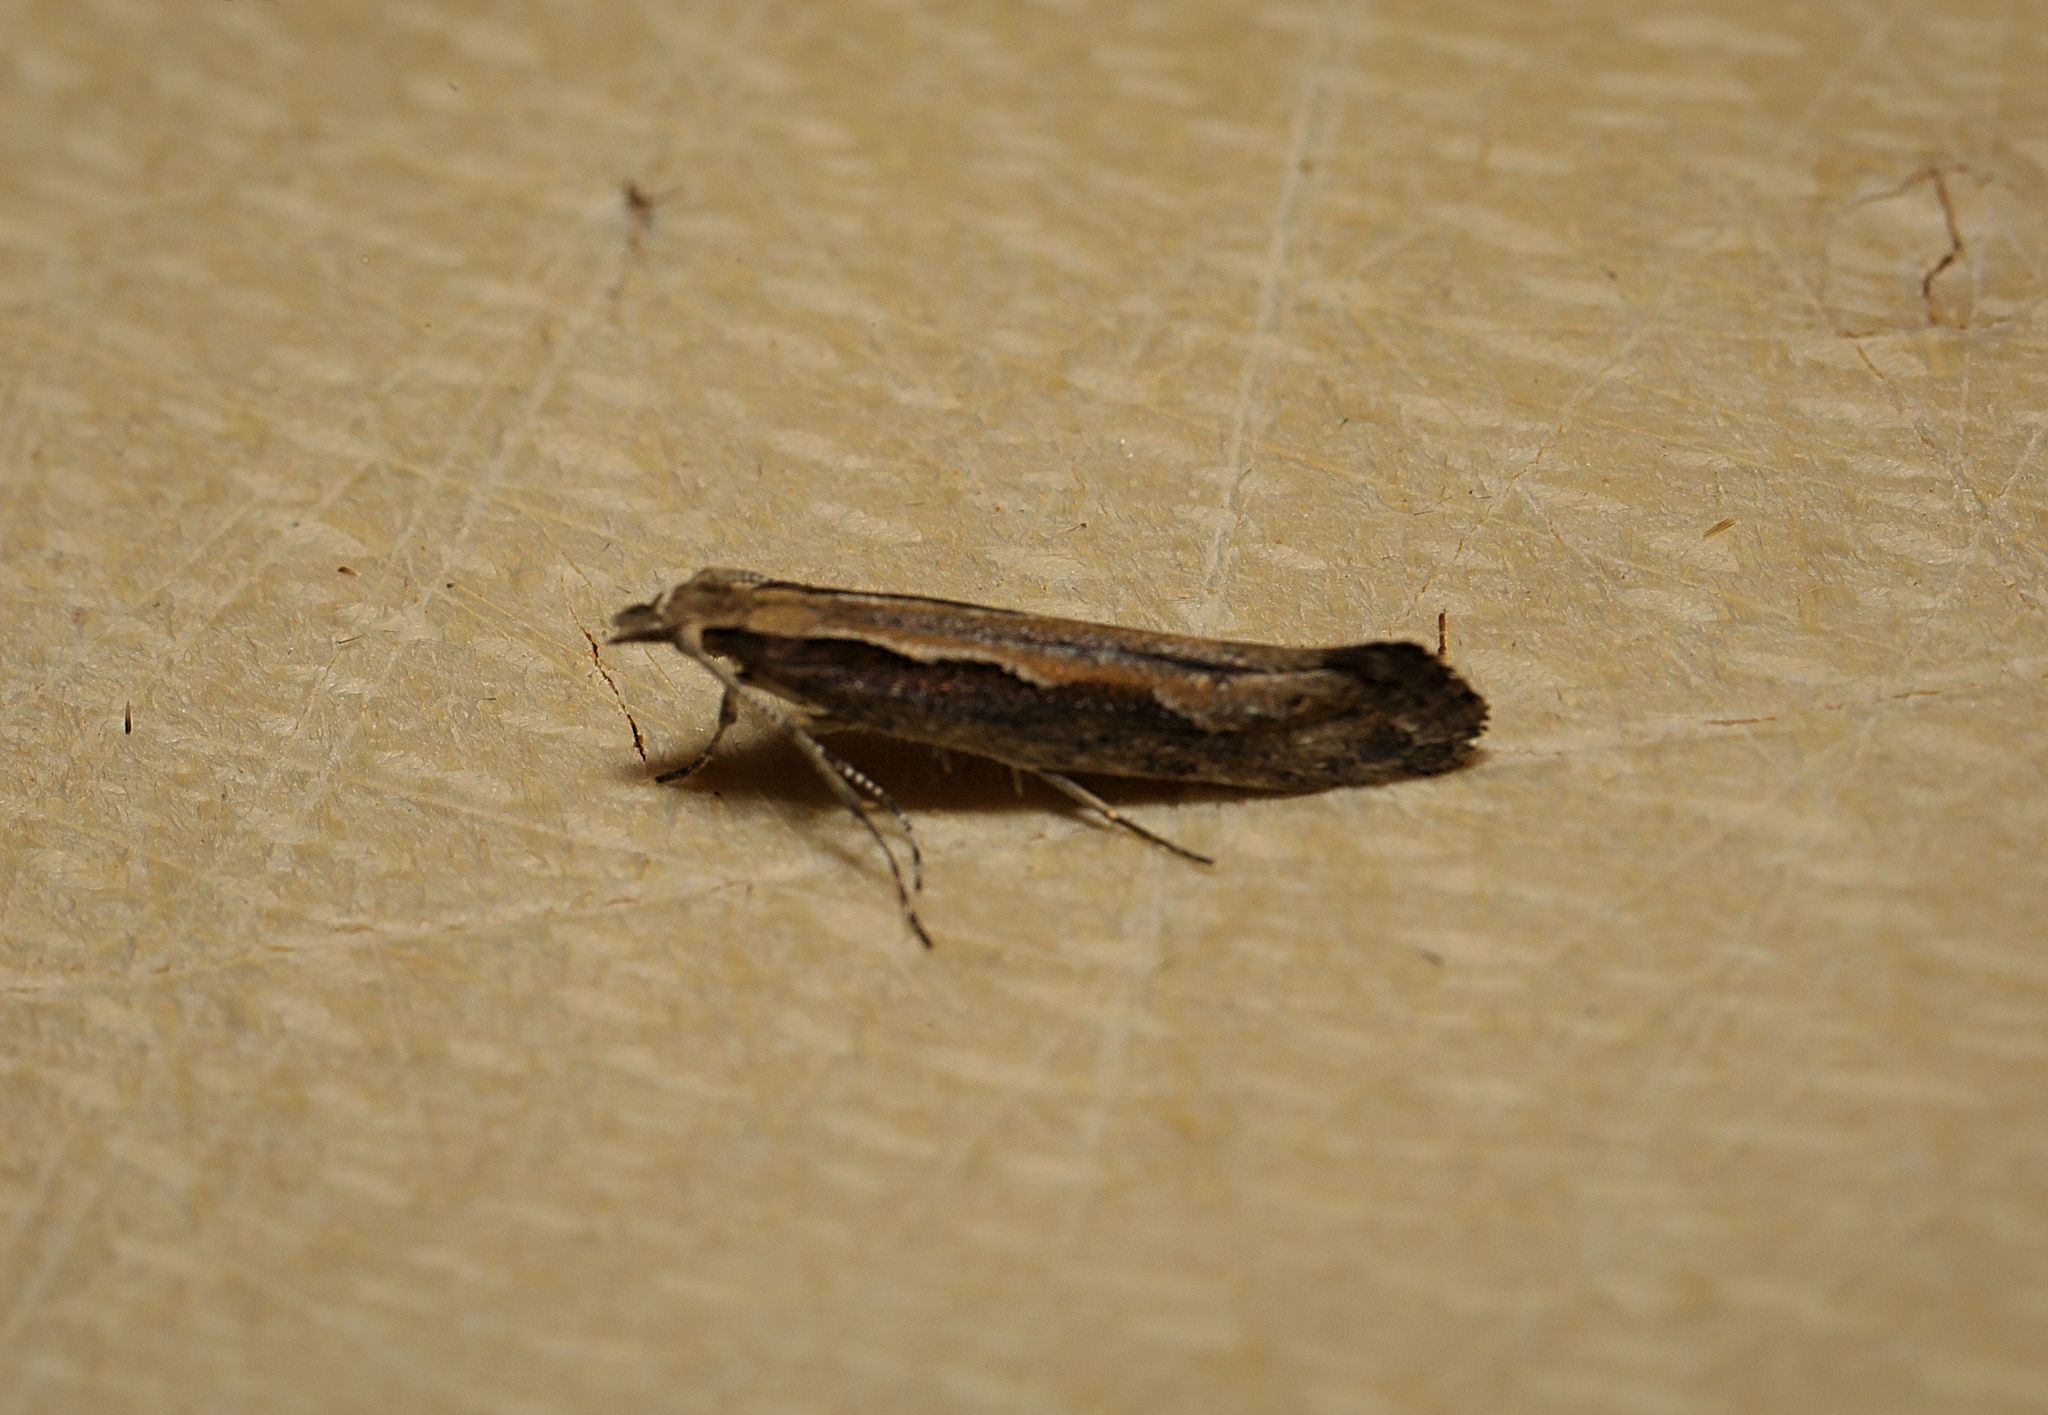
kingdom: Animalia
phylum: Arthropoda
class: Insecta
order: Lepidoptera
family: Plutellidae
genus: Plutella
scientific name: Plutella xylostella
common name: Diamond-back moth
